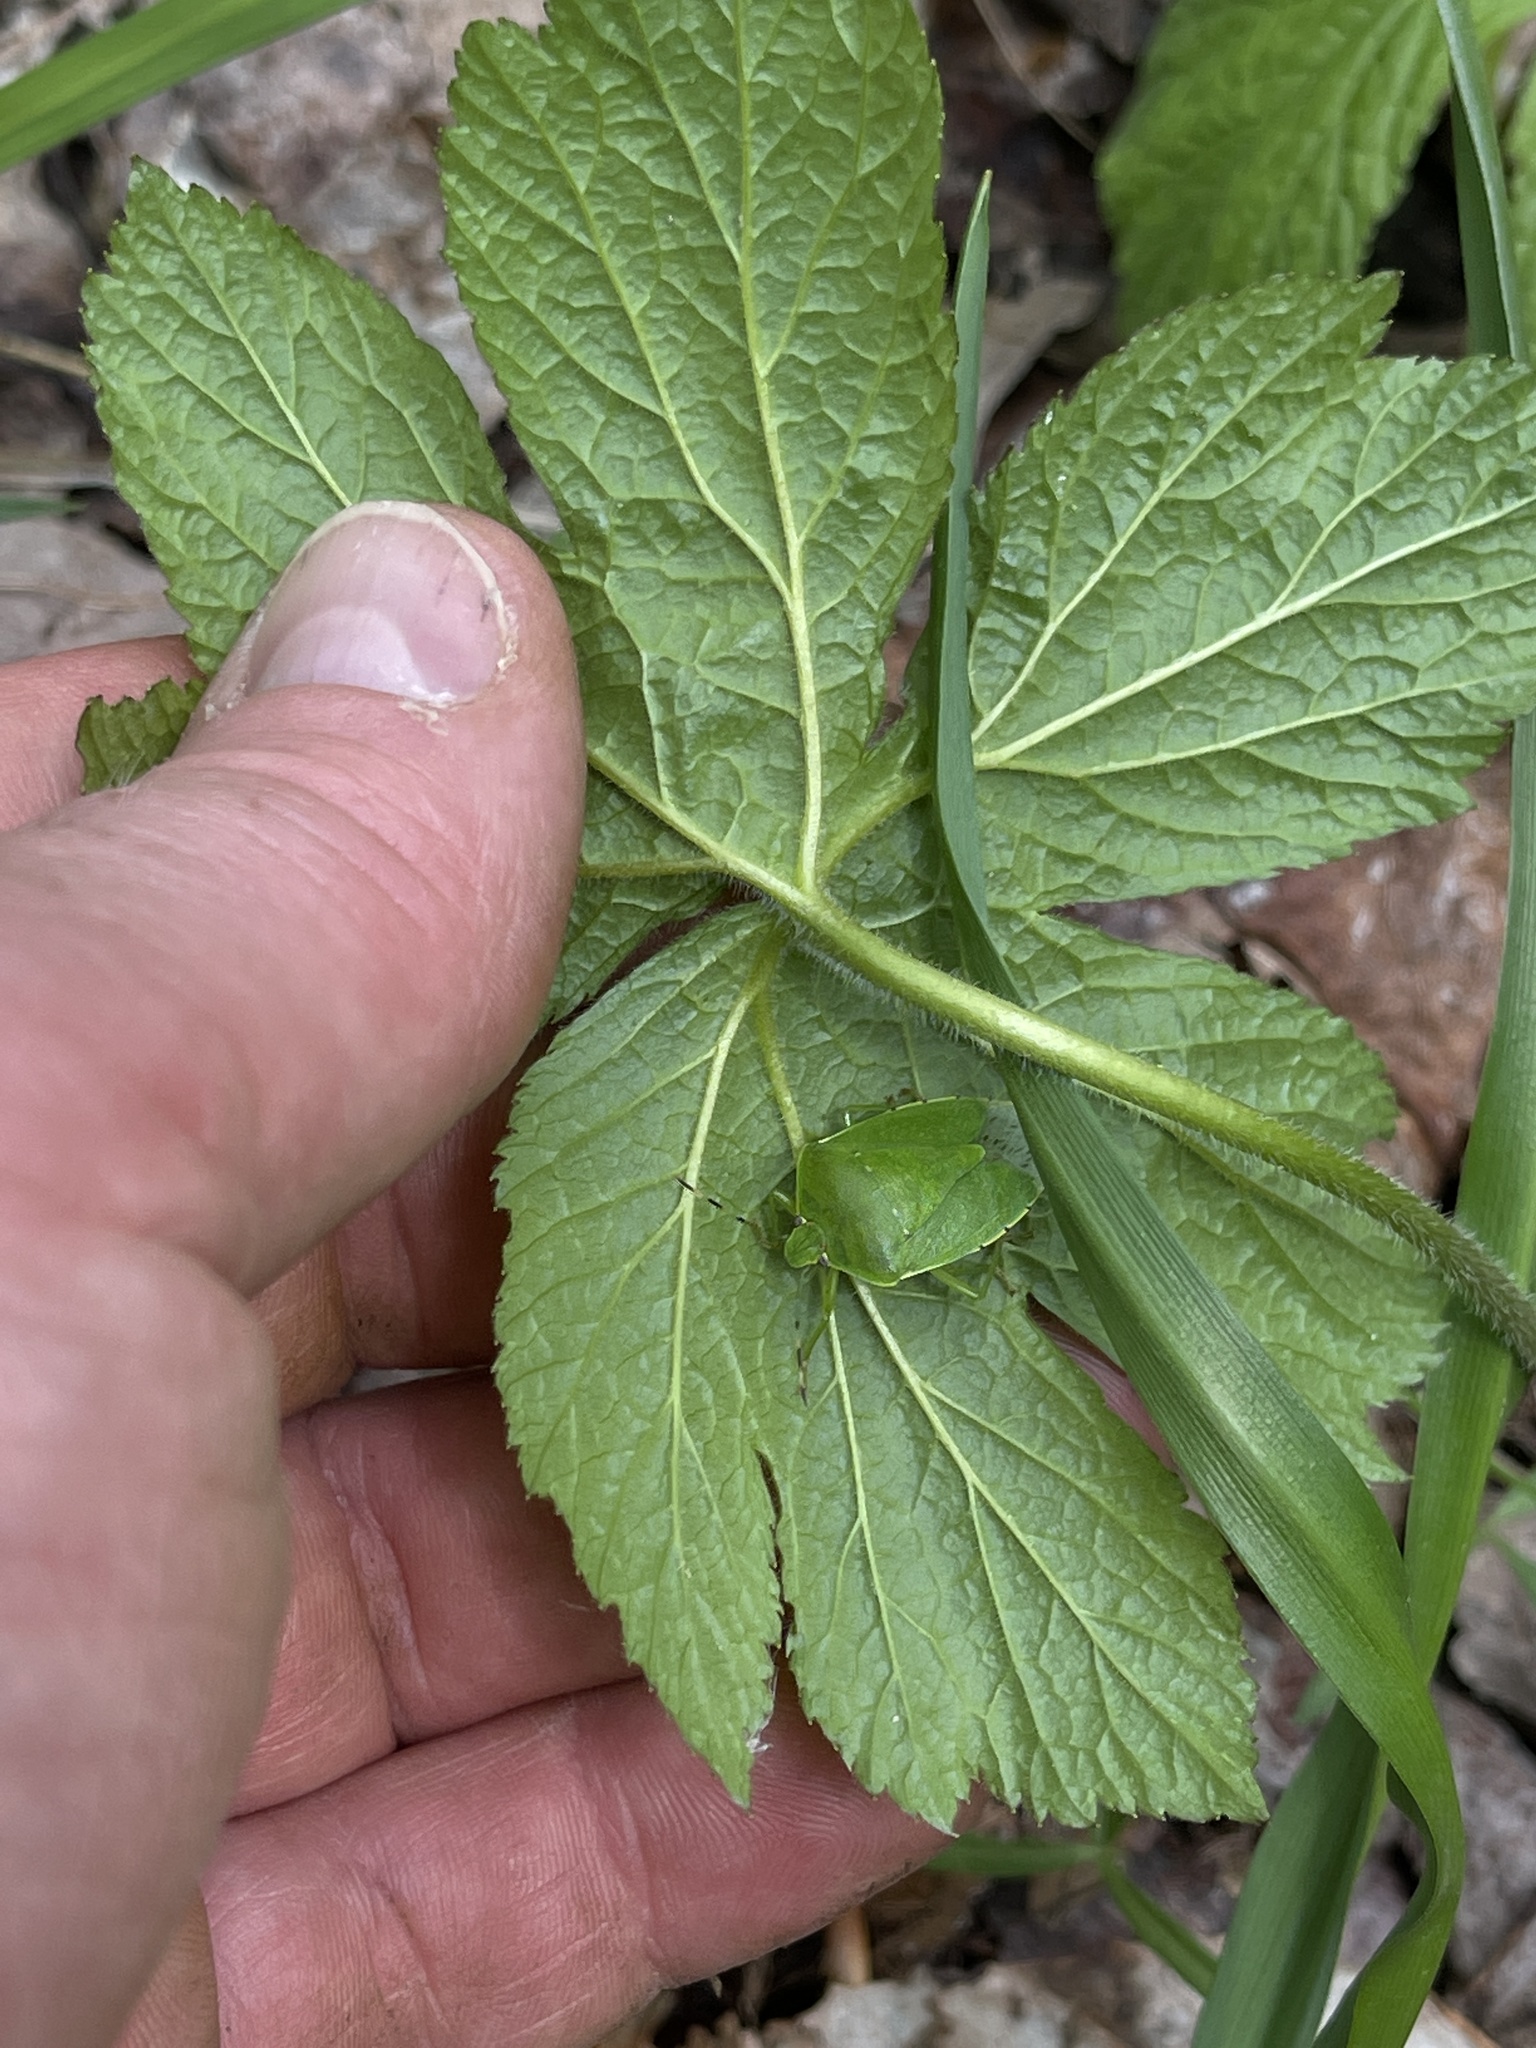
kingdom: Animalia
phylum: Arthropoda
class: Insecta
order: Hemiptera
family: Pentatomidae
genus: Chinavia
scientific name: Chinavia hilaris
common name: Green stink bug
